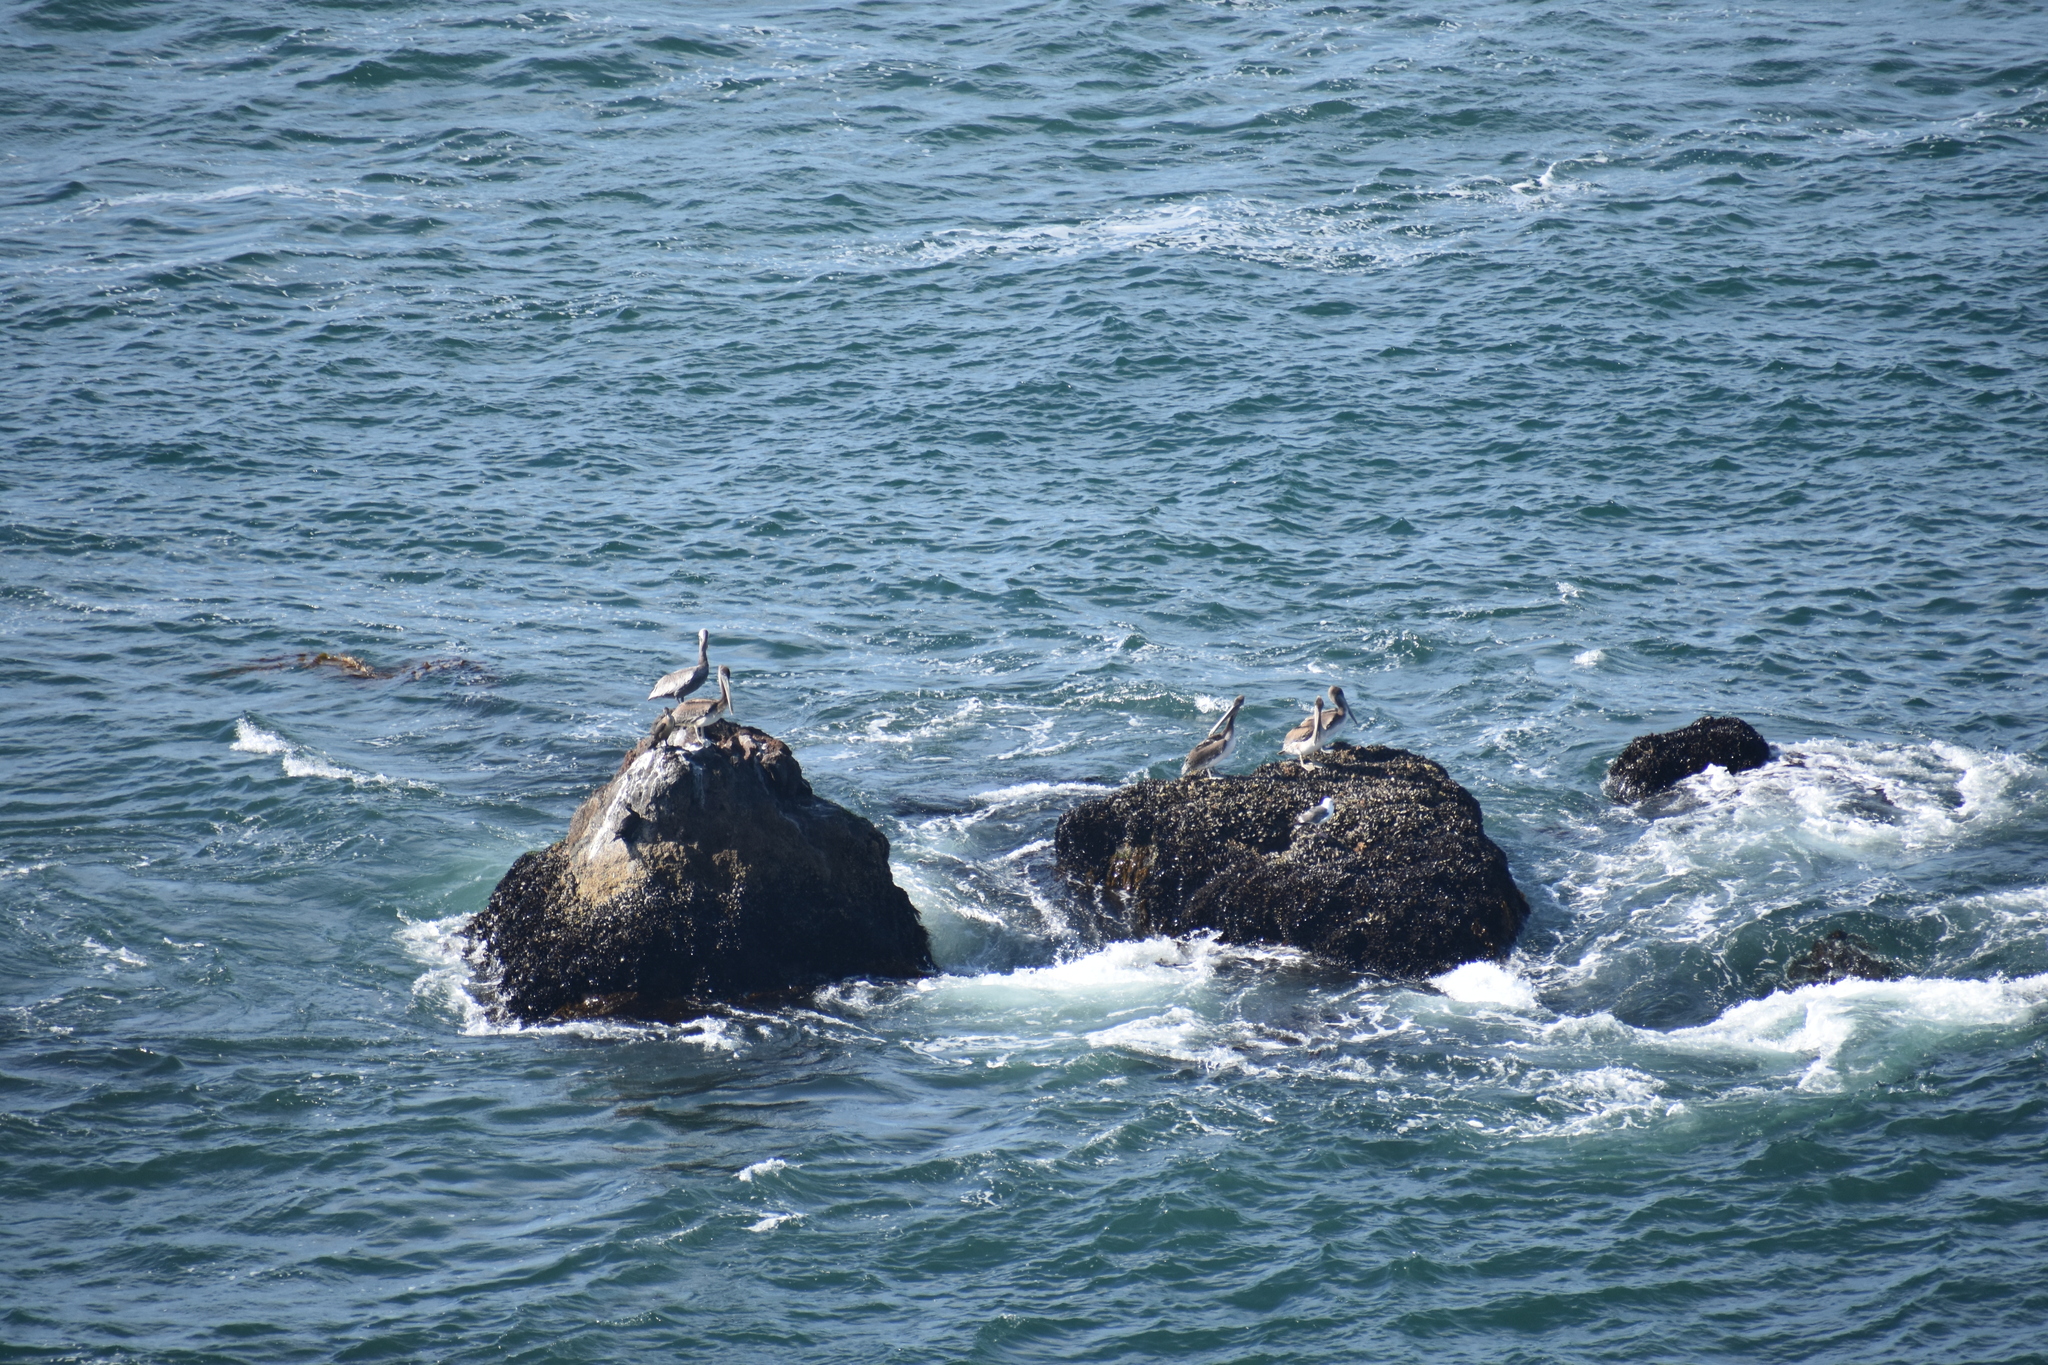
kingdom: Animalia
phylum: Chordata
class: Aves
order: Pelecaniformes
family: Pelecanidae
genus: Pelecanus
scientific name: Pelecanus occidentalis
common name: Brown pelican
